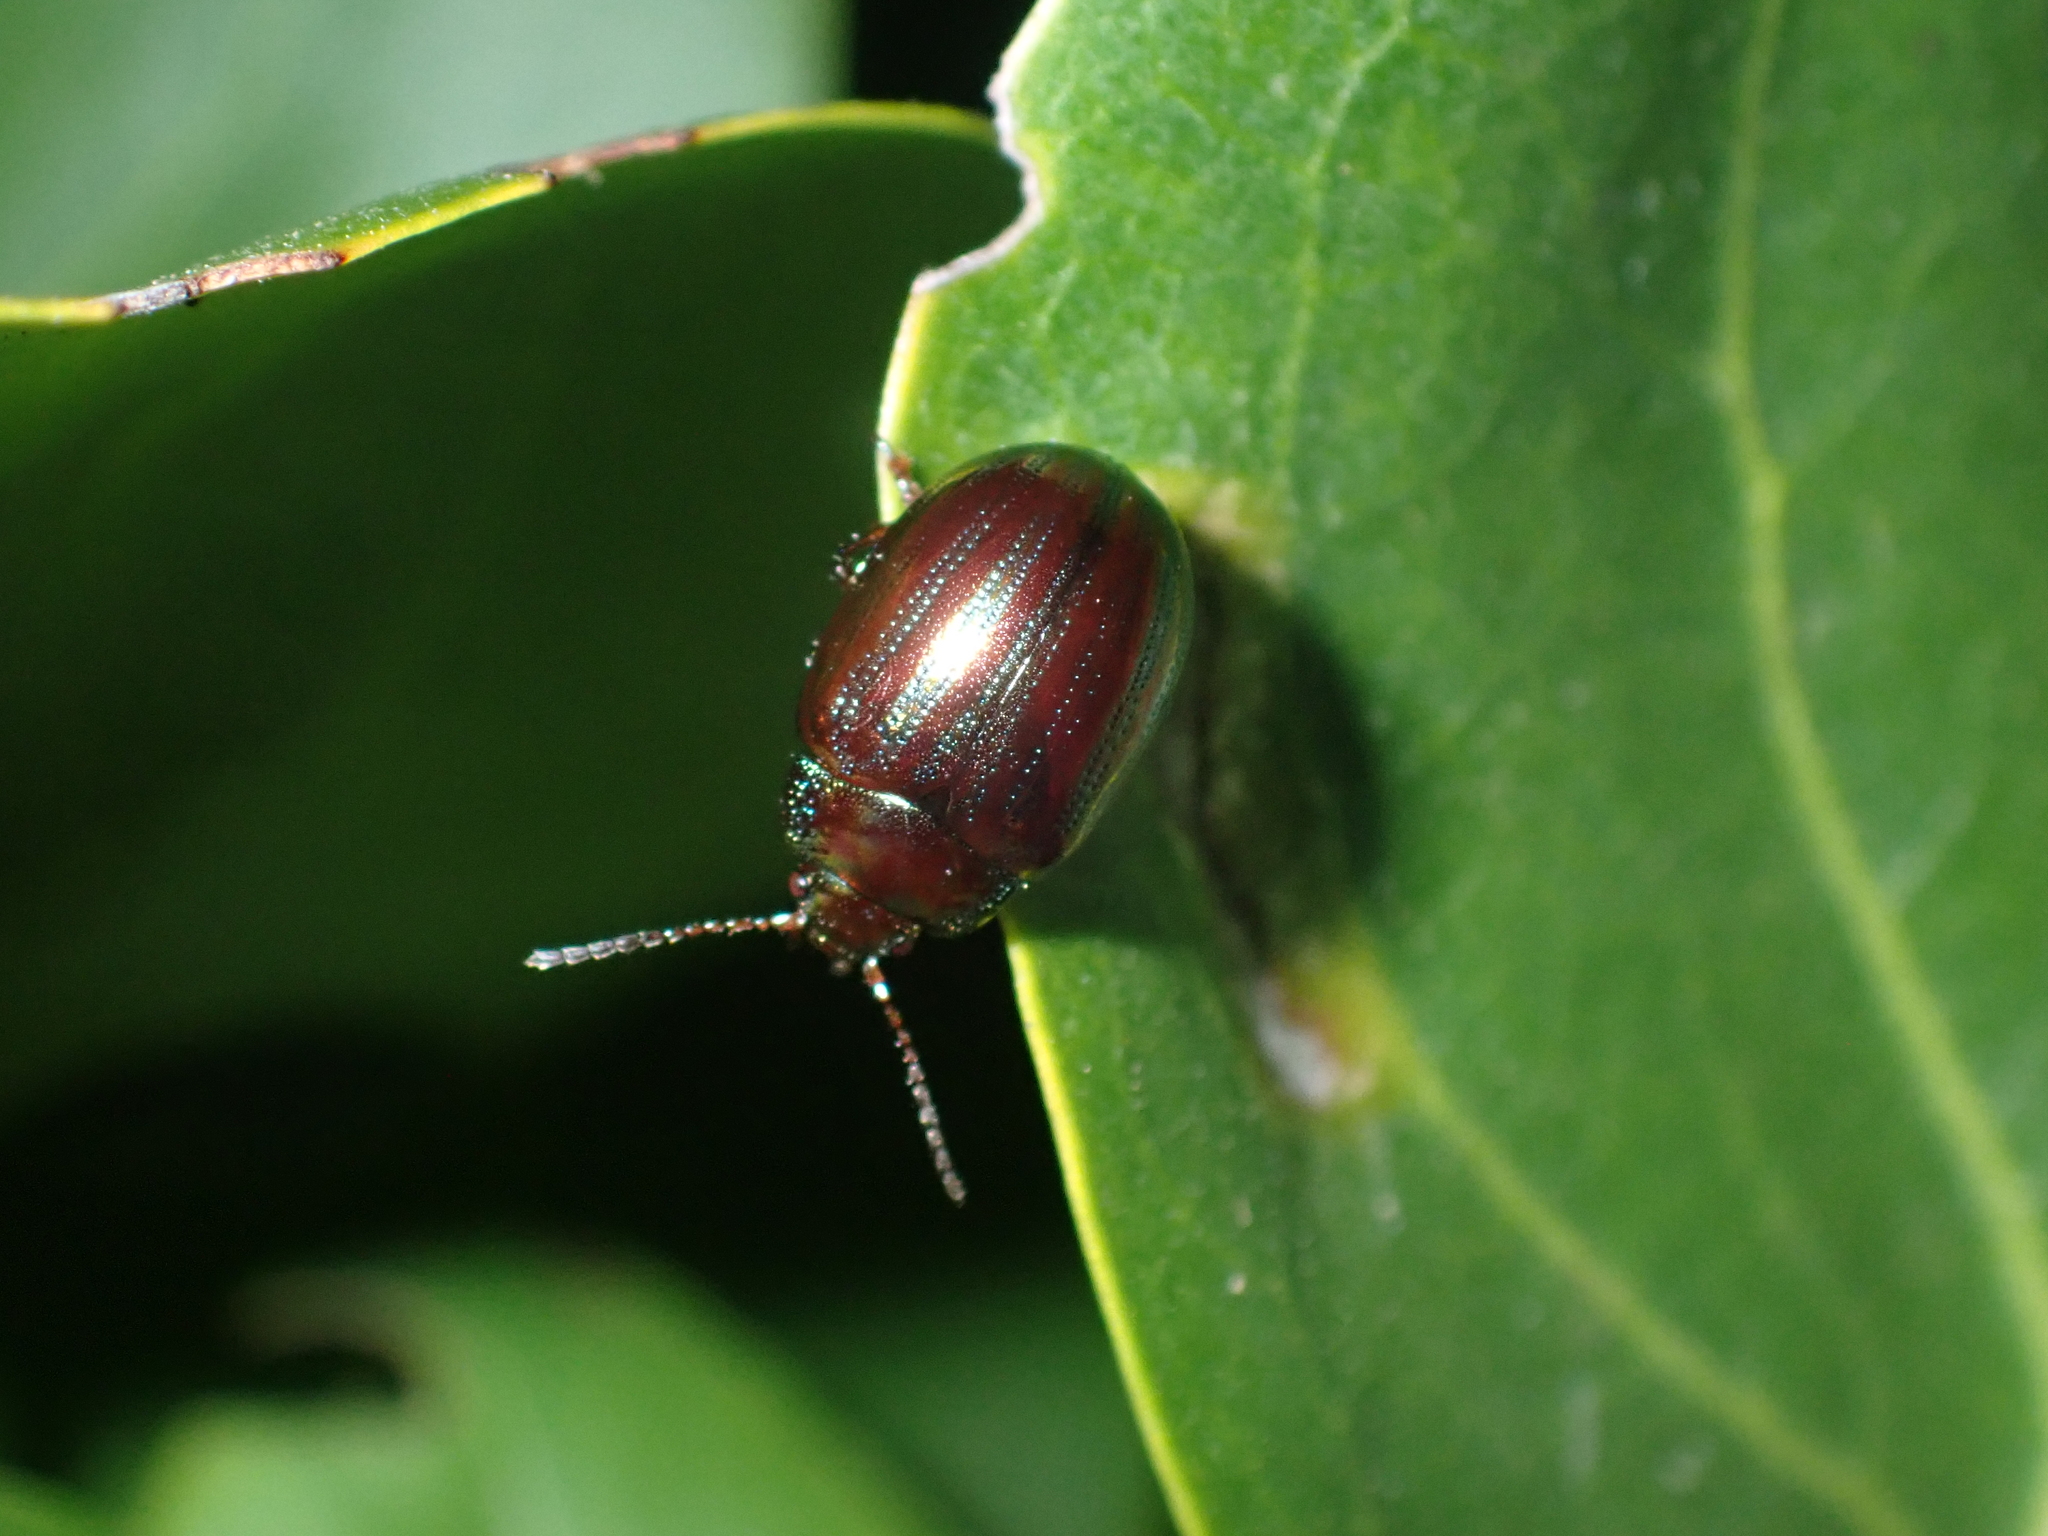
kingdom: Animalia
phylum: Arthropoda
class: Insecta
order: Coleoptera
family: Chrysomelidae
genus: Chrysolina
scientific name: Chrysolina americana
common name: Rosemary beetle
